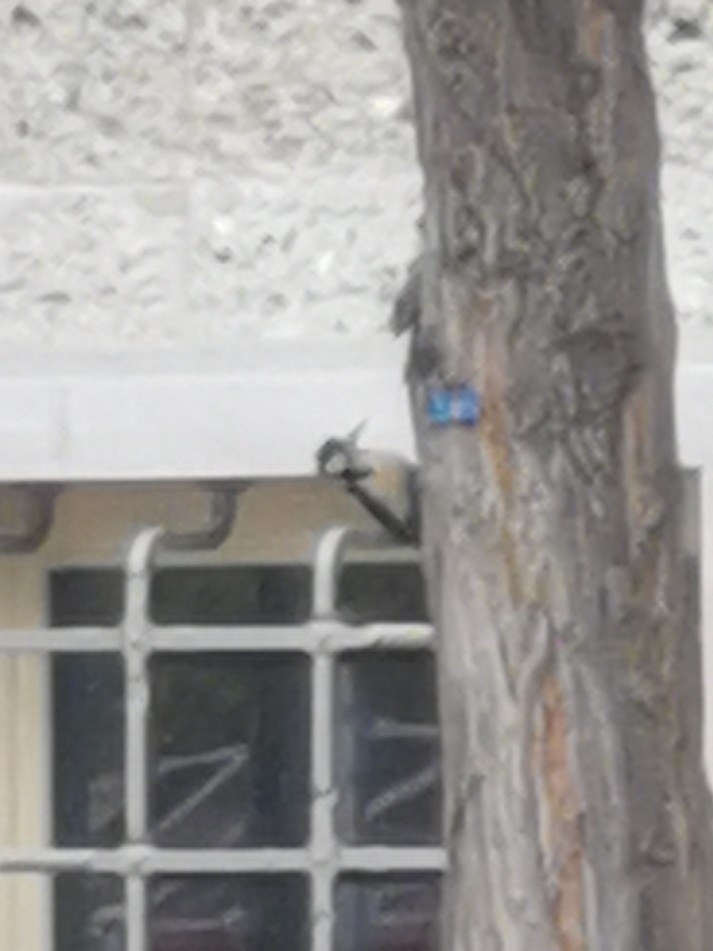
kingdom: Animalia
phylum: Chordata
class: Aves
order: Piciformes
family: Picidae
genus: Dendrocopos
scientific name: Dendrocopos major
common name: Great spotted woodpecker
